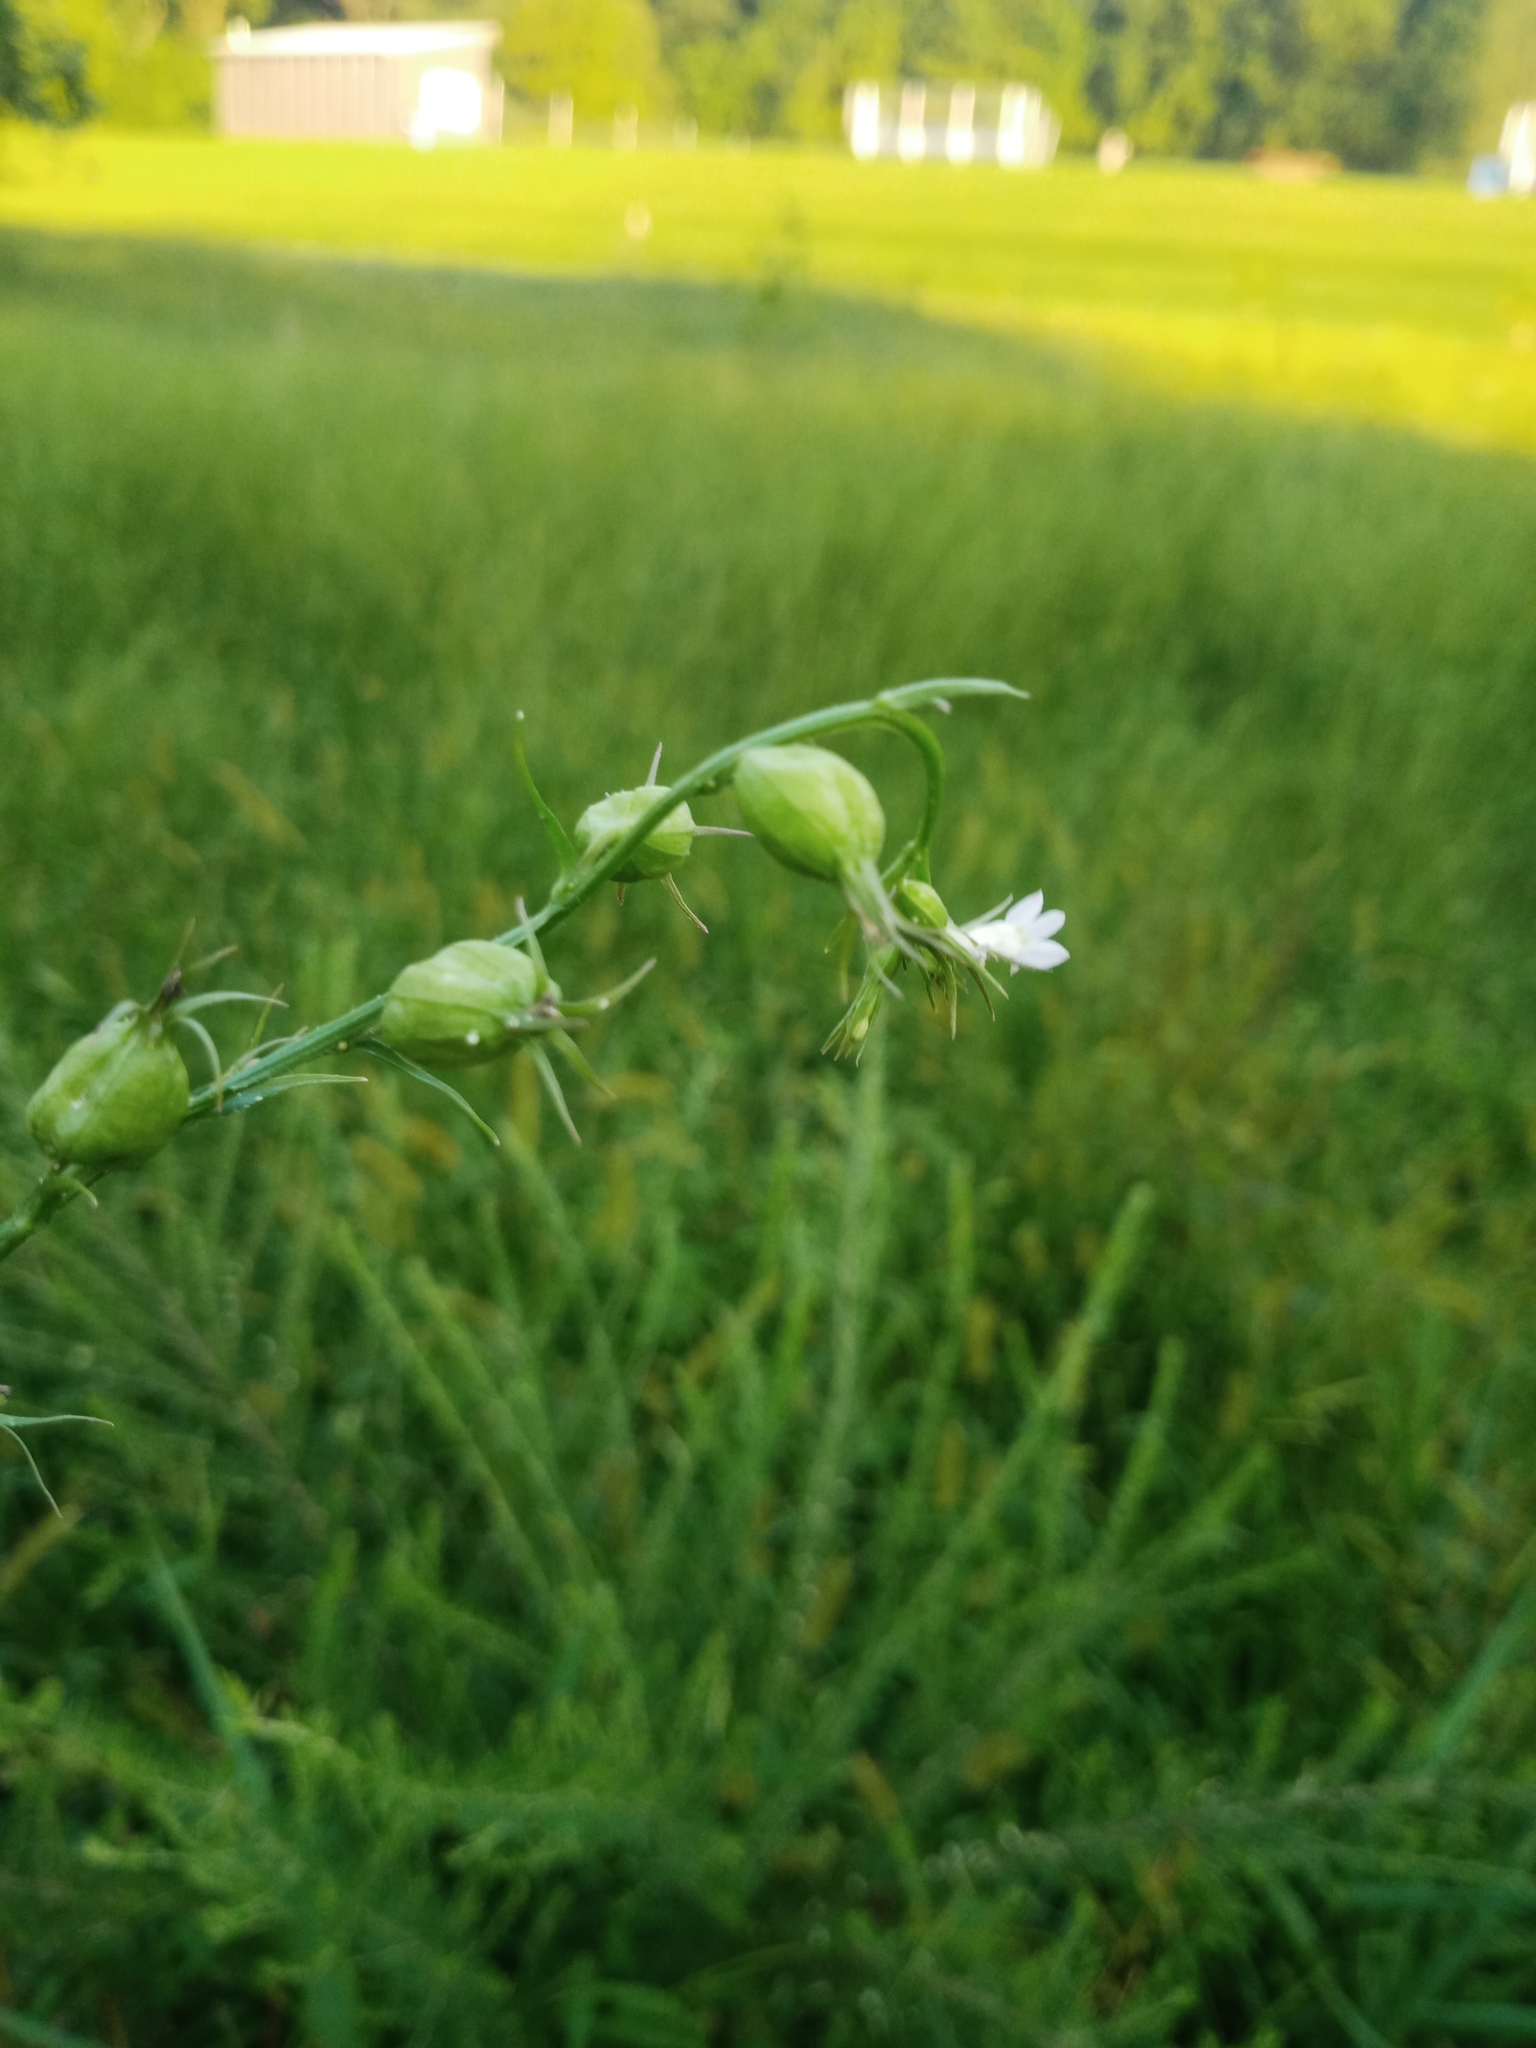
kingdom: Plantae
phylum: Tracheophyta
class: Magnoliopsida
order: Asterales
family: Campanulaceae
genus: Lobelia
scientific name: Lobelia inflata
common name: Indian tobacco
